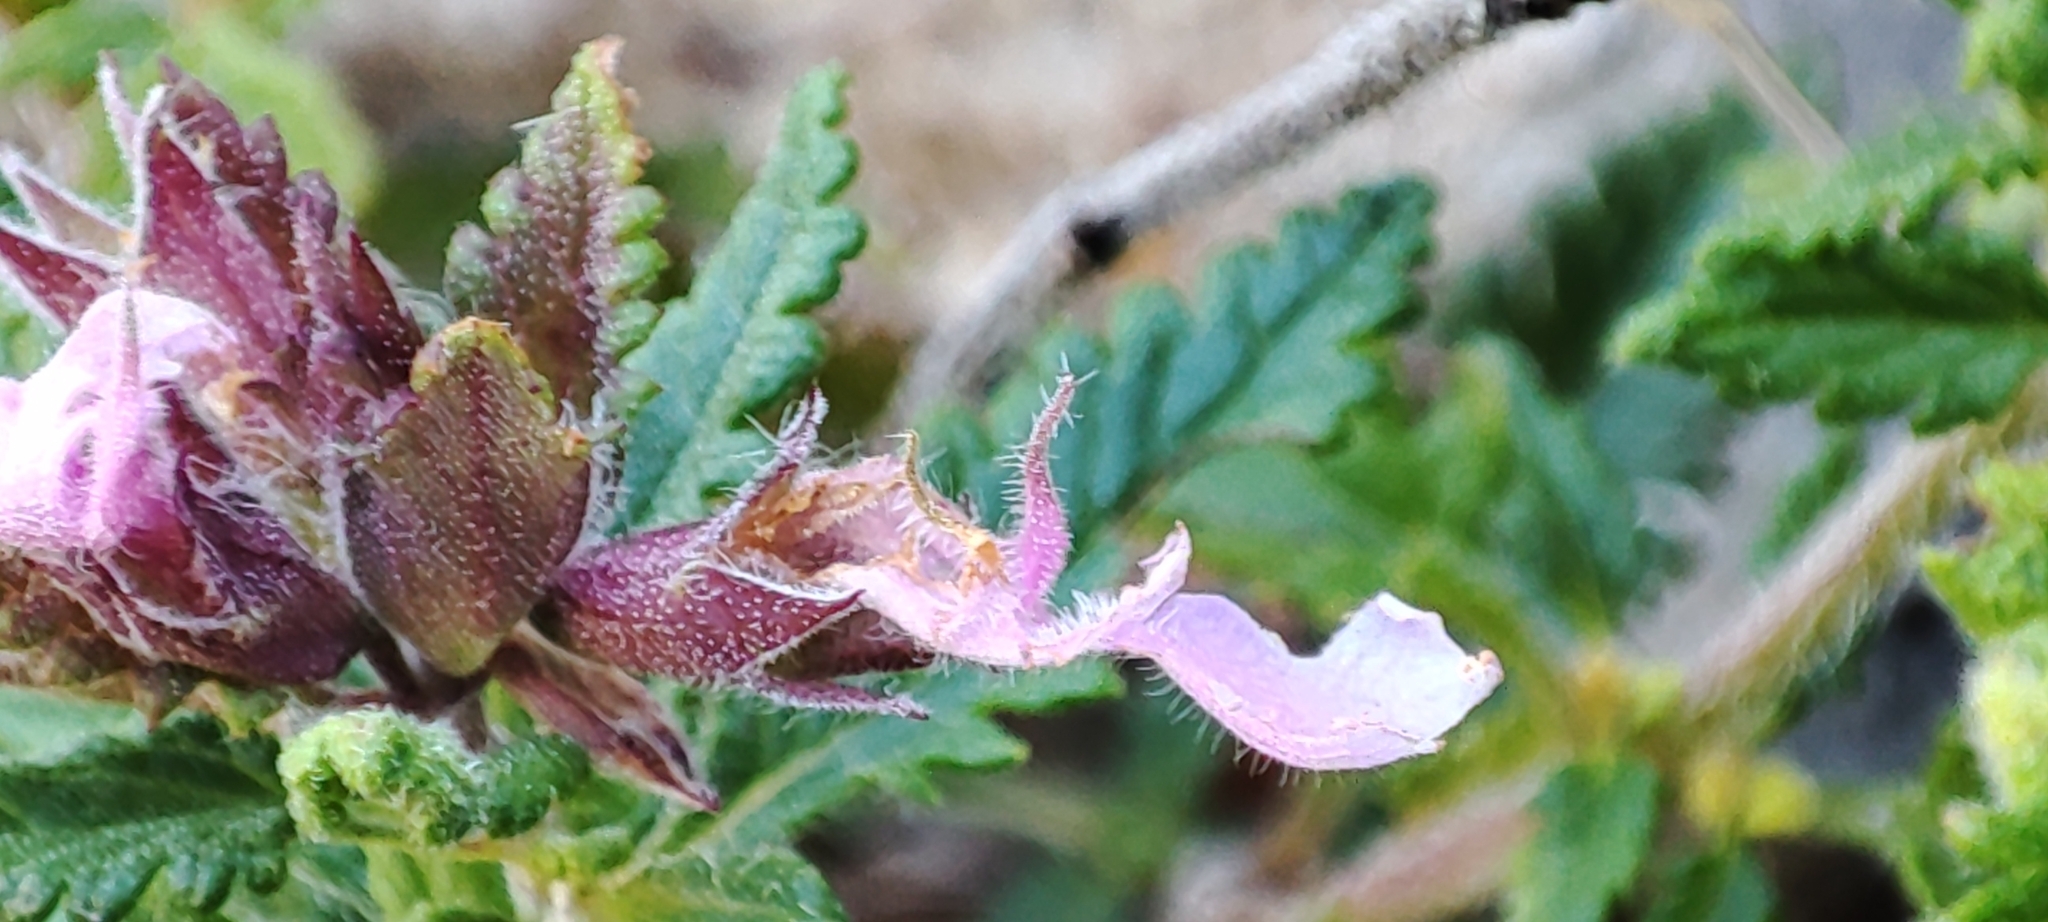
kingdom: Plantae
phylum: Tracheophyta
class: Magnoliopsida
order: Lamiales
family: Lamiaceae
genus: Teucrium
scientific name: Teucrium chamaedrys
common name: Wall germander
